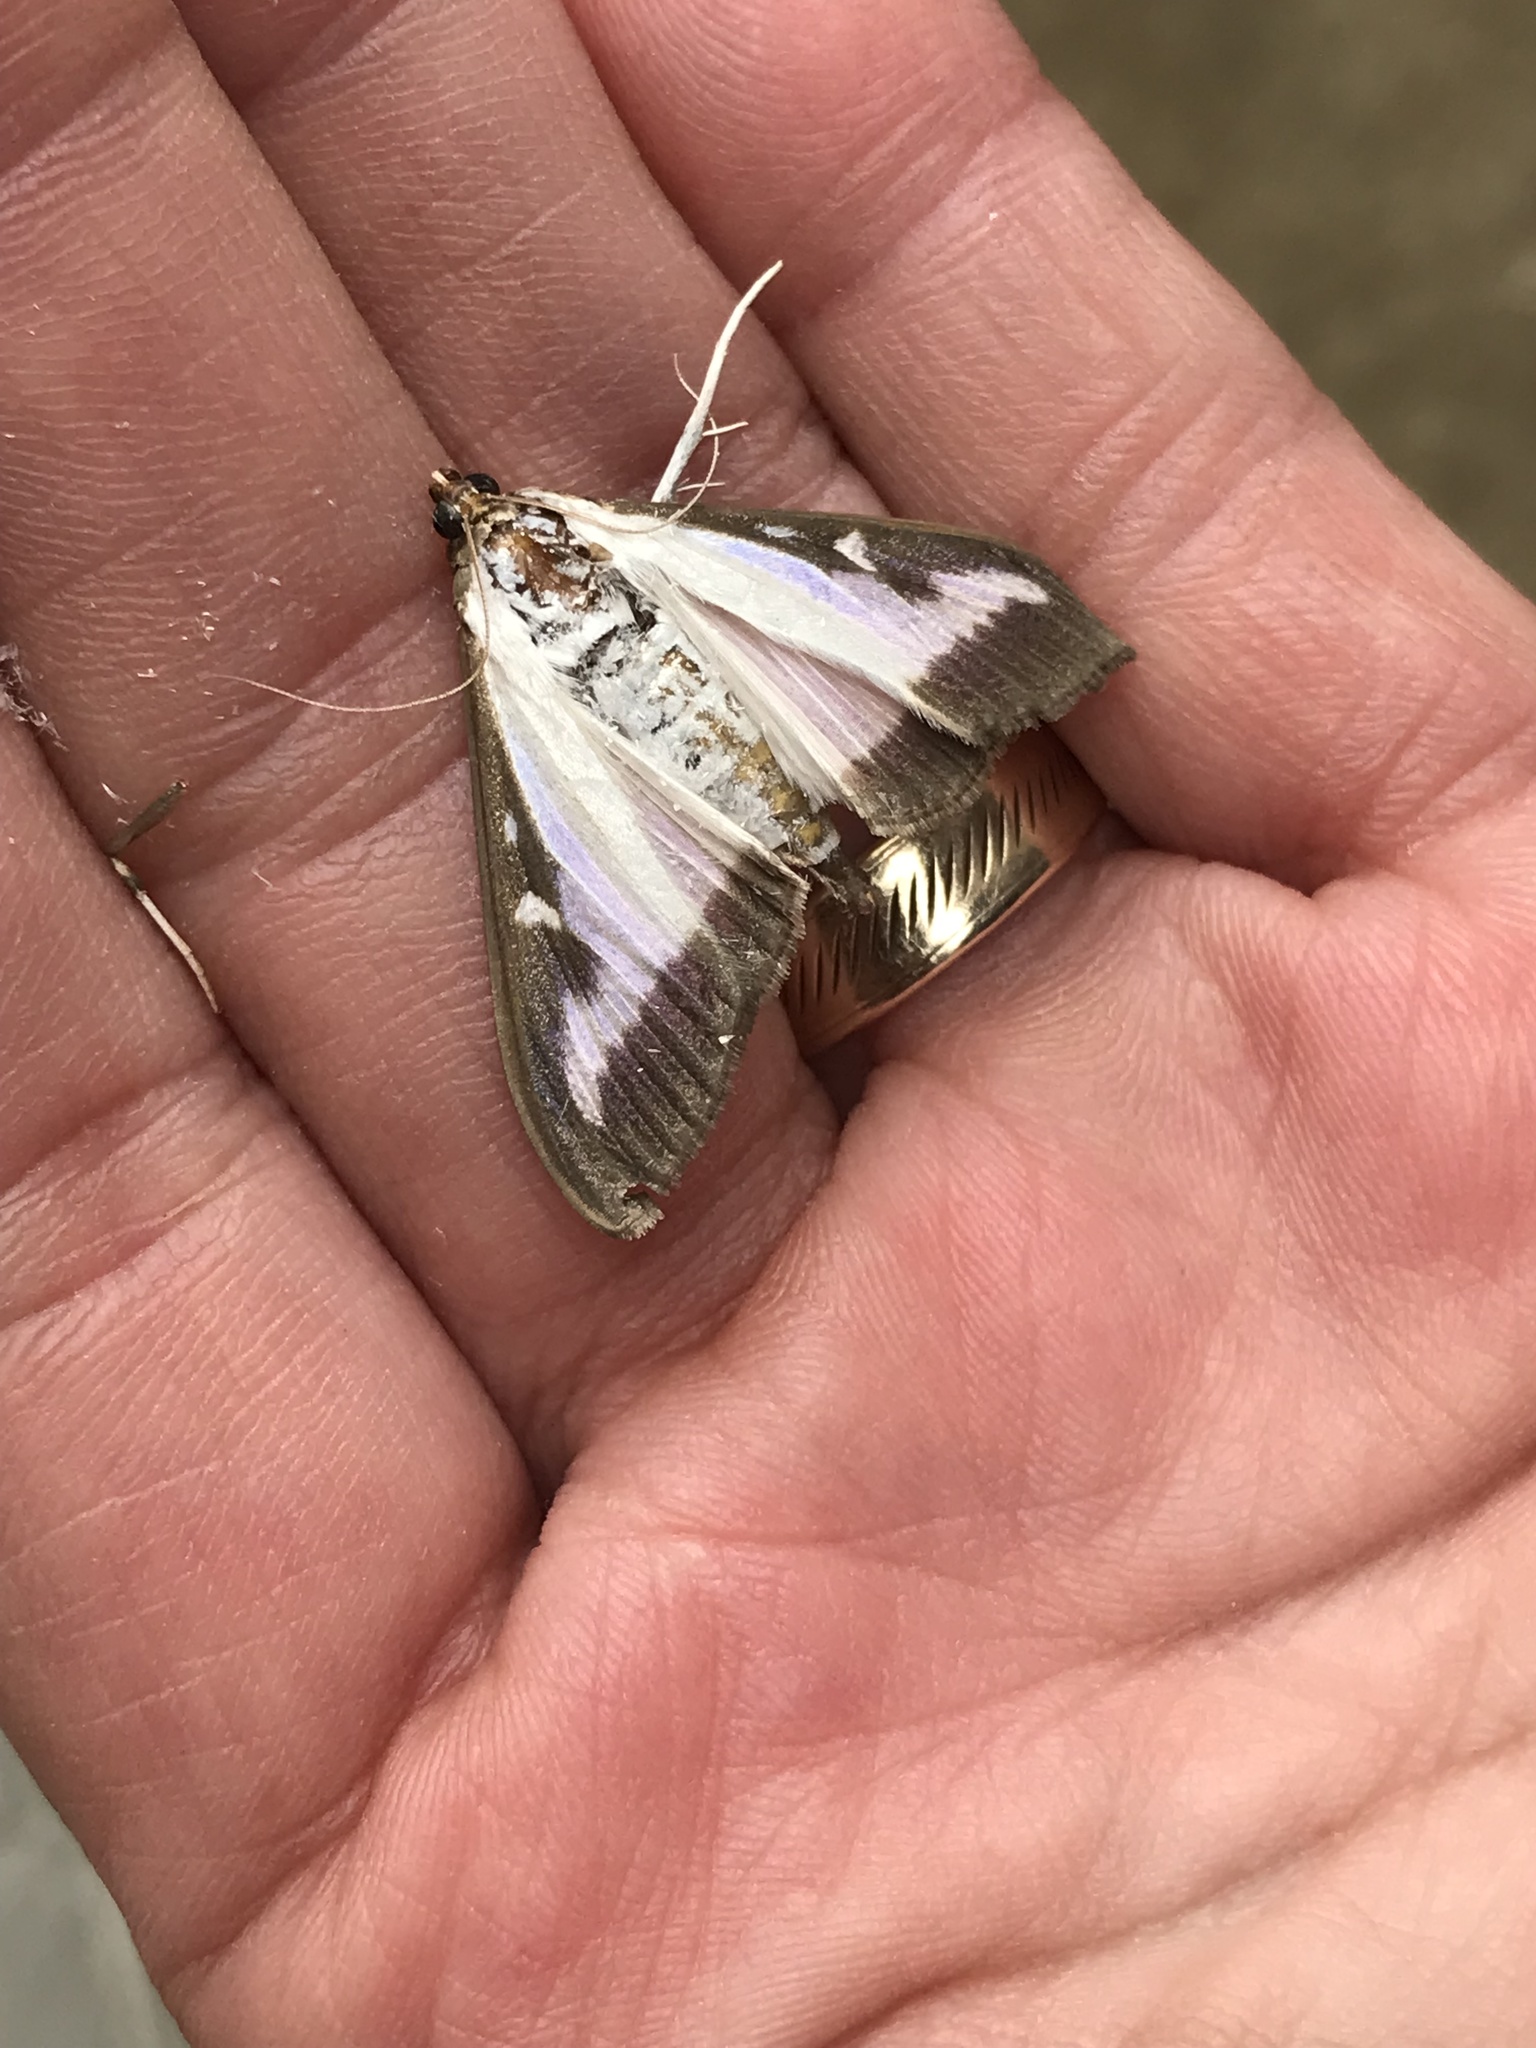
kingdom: Animalia
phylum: Arthropoda
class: Insecta
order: Lepidoptera
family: Crambidae
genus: Cydalima
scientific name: Cydalima perspectalis
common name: Box tree moth
